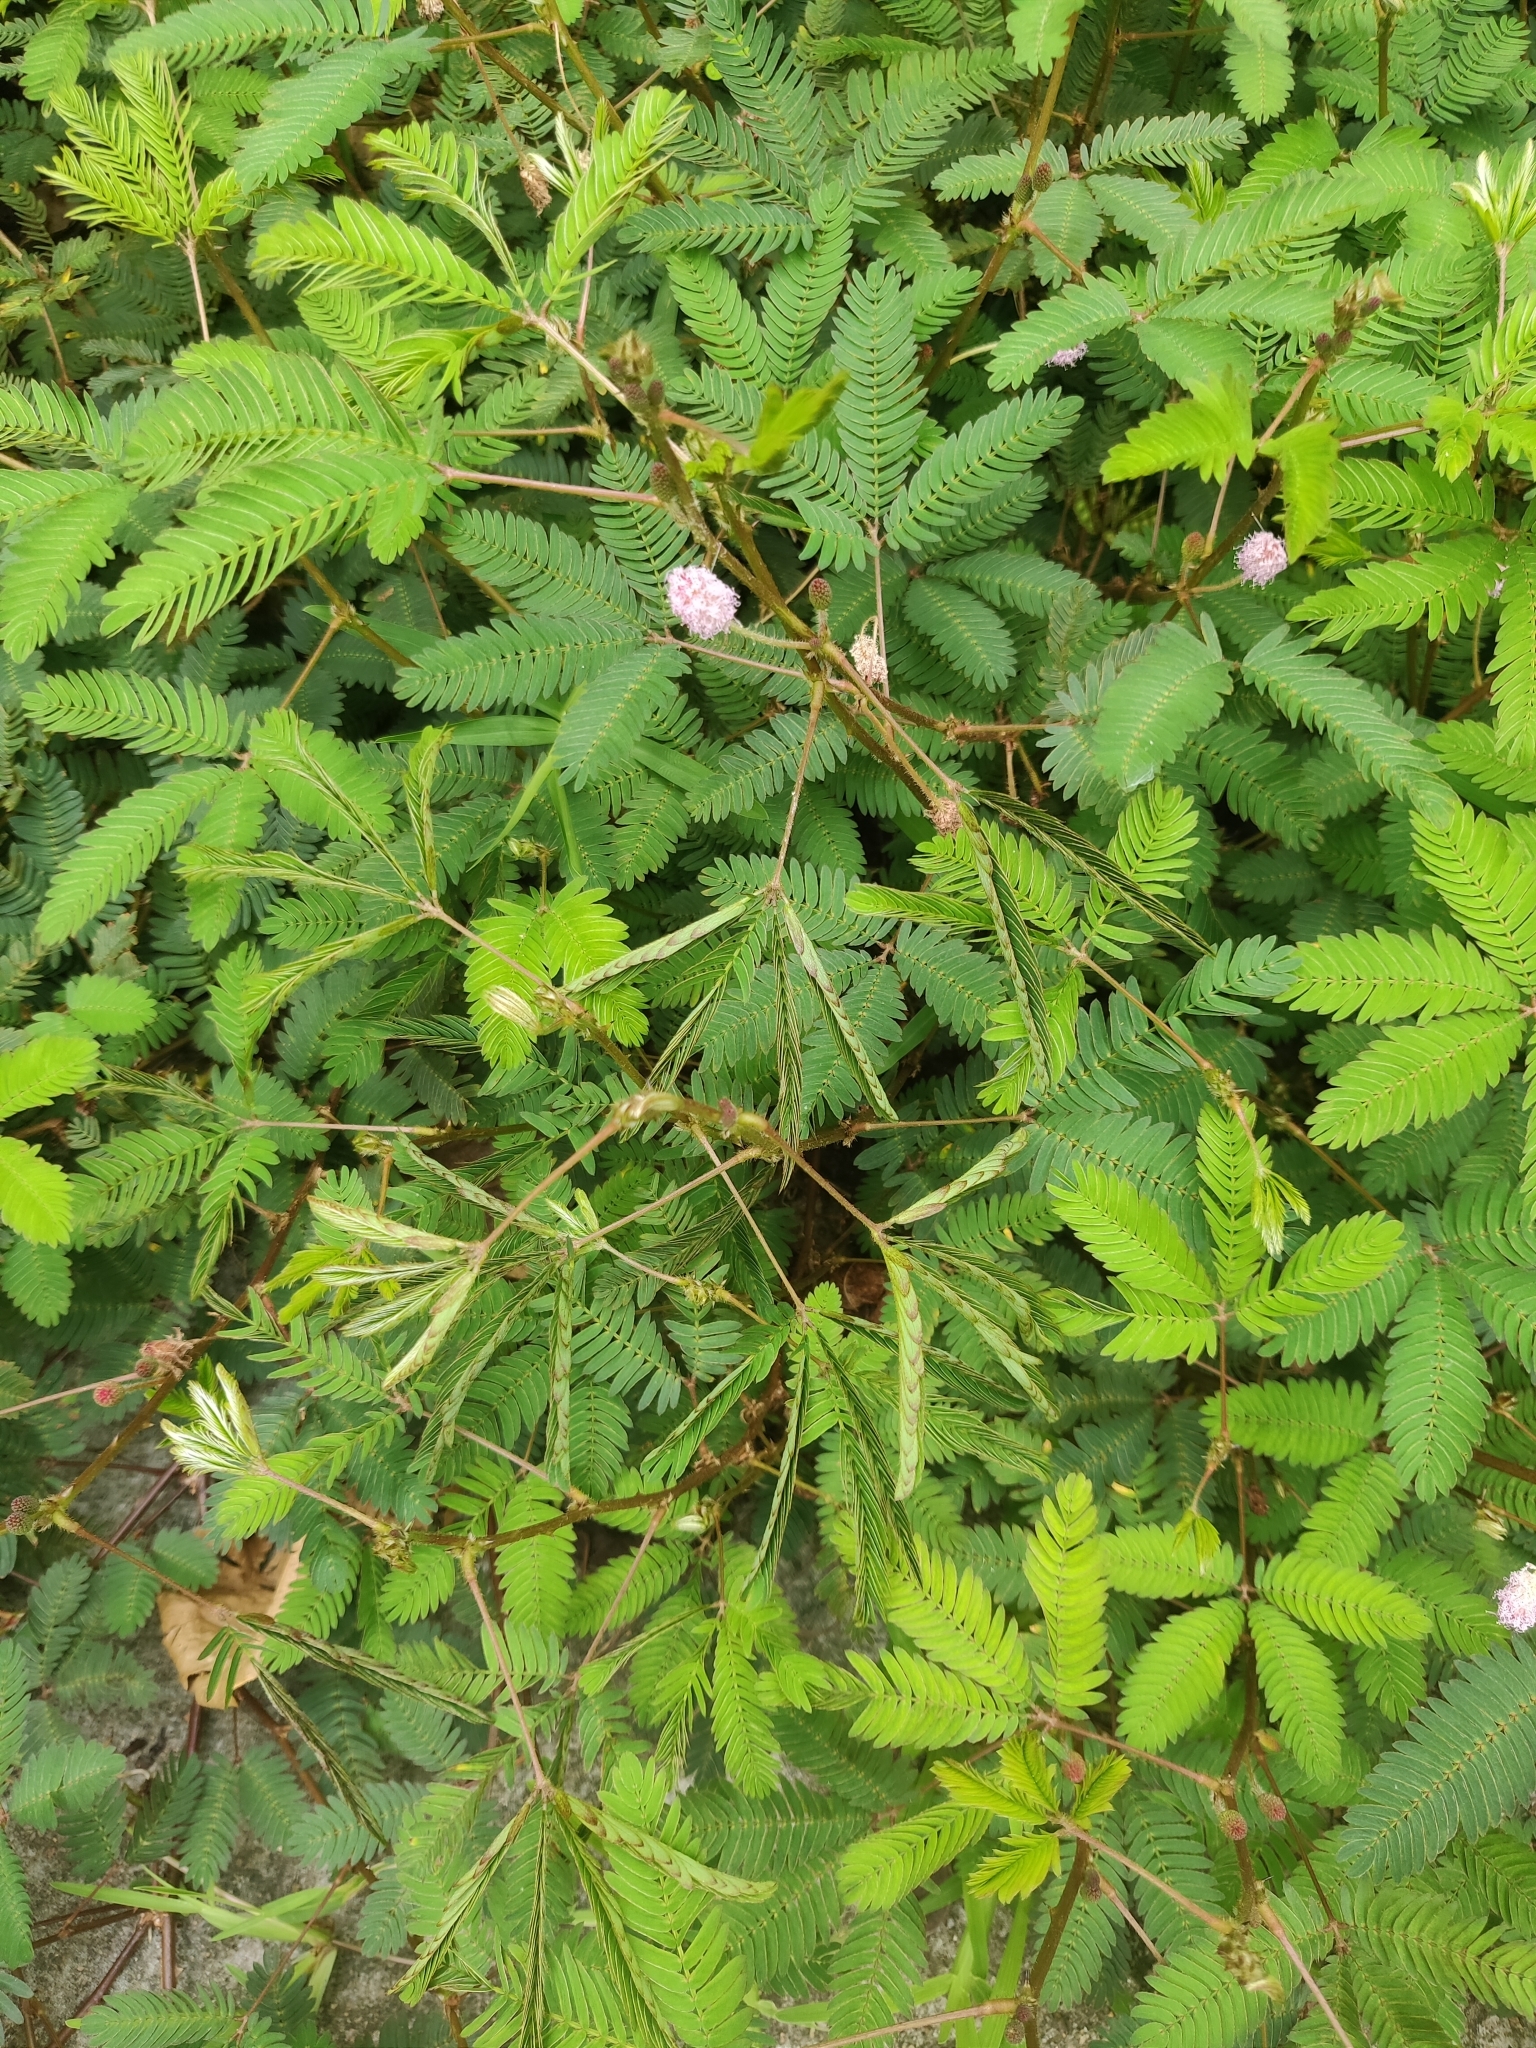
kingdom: Plantae
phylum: Tracheophyta
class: Magnoliopsida
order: Fabales
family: Fabaceae
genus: Mimosa
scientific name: Mimosa pudica
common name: Sensitive plant
